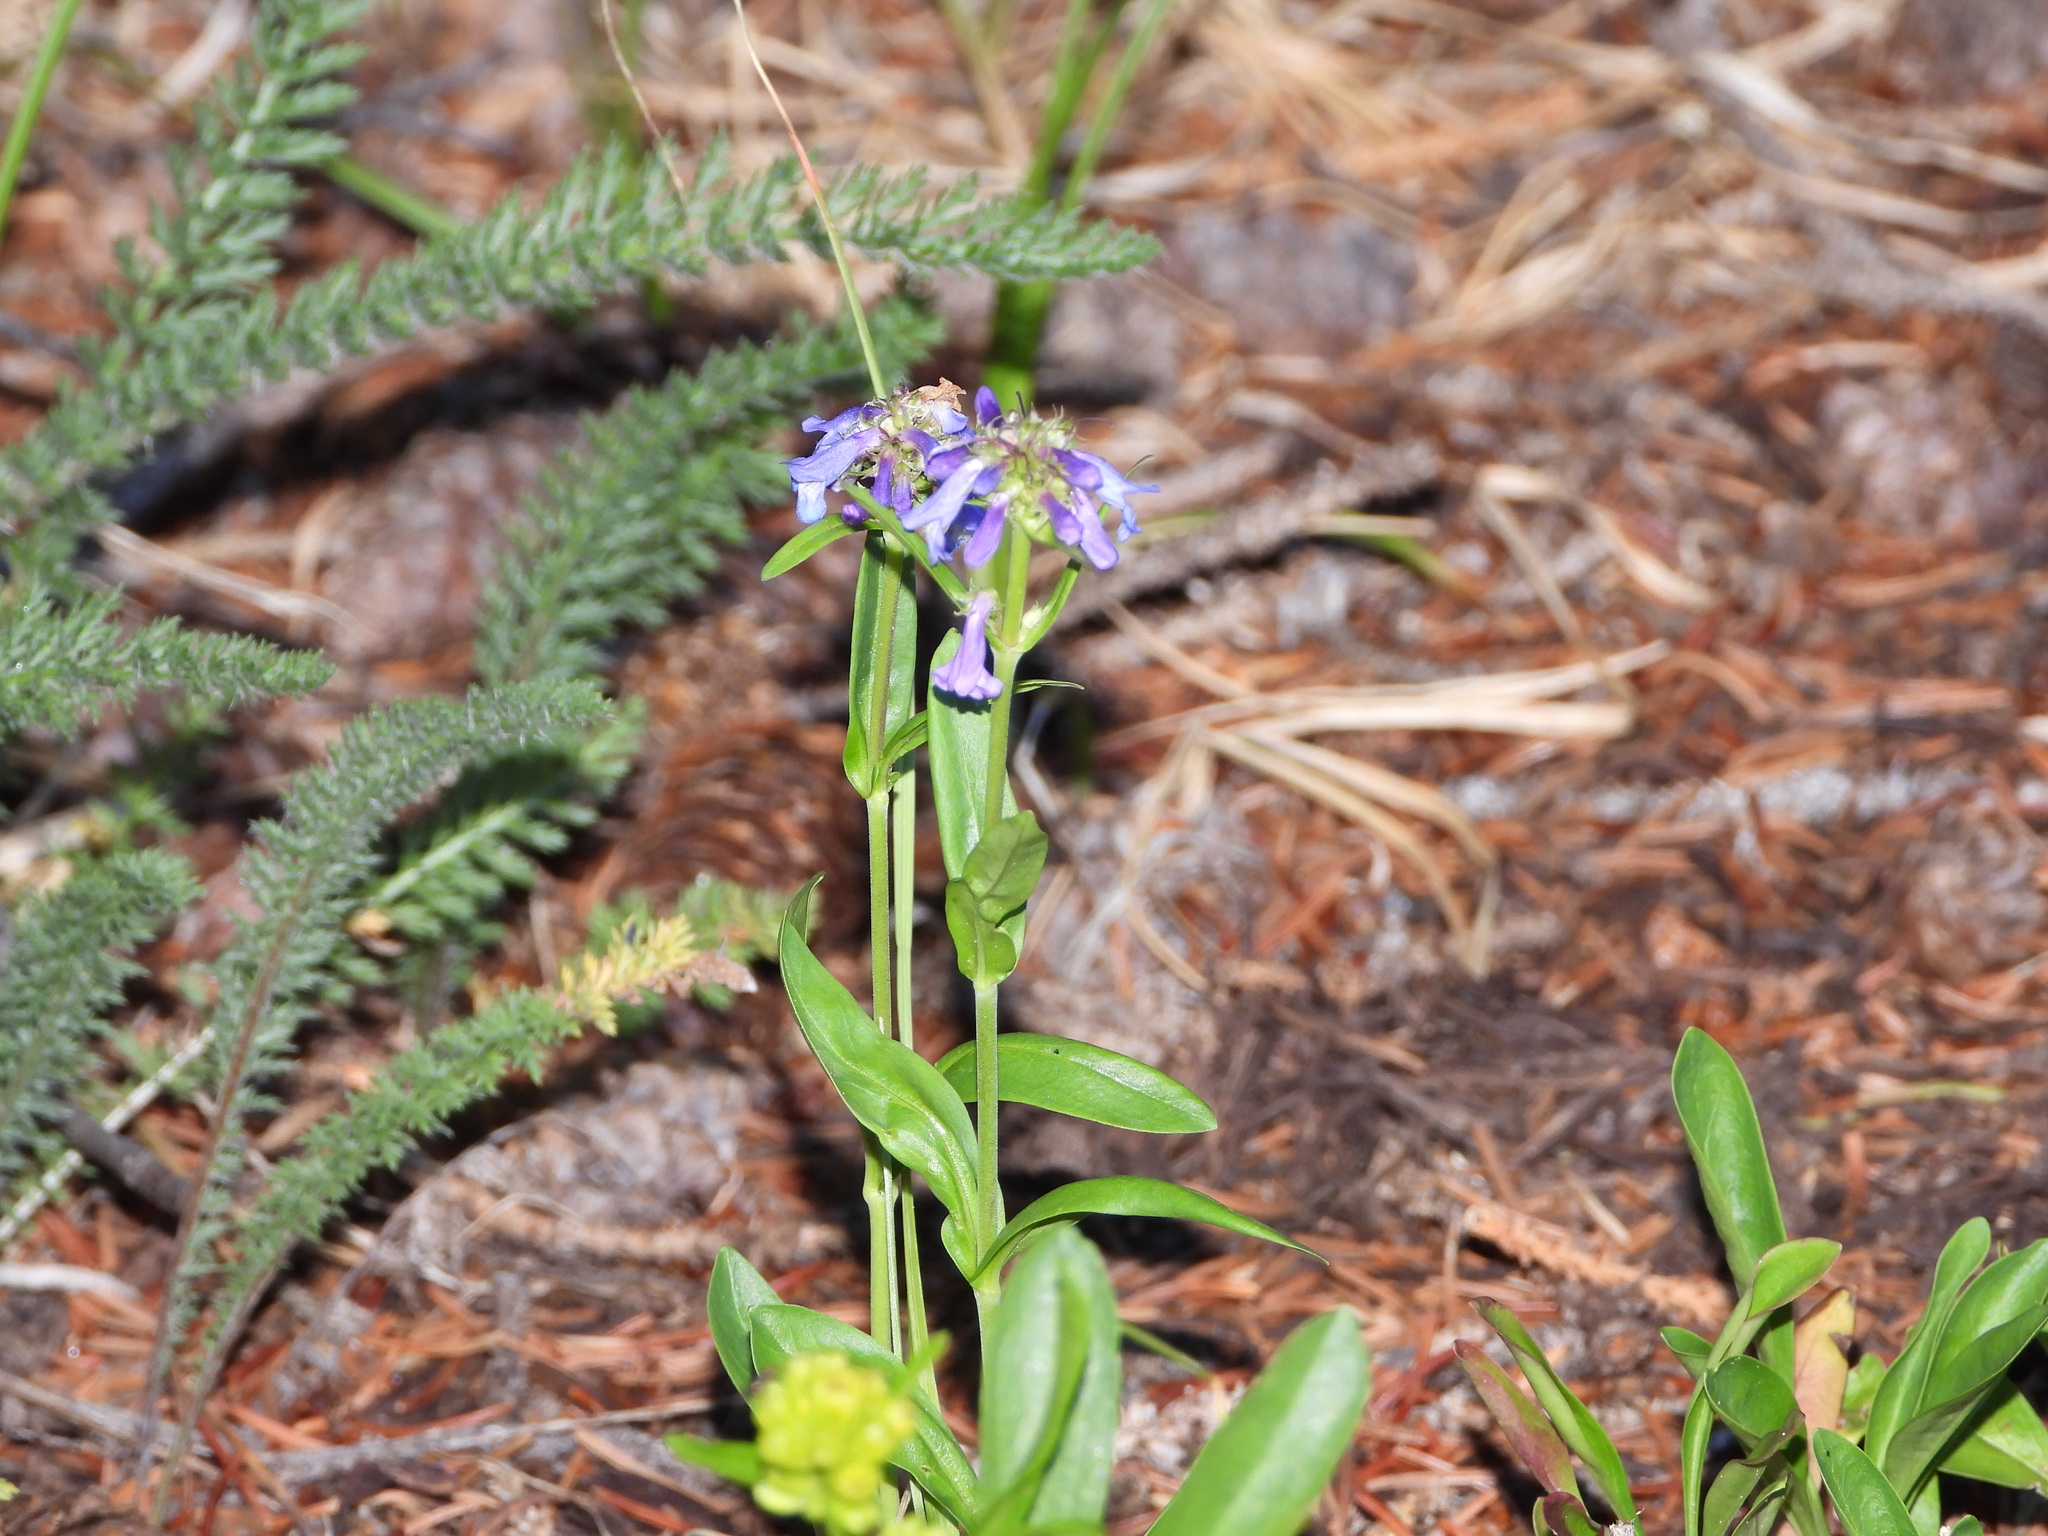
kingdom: Plantae
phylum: Tracheophyta
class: Magnoliopsida
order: Lamiales
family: Plantaginaceae
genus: Penstemon
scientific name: Penstemon rydbergii
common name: Rydberg's beardtongue
